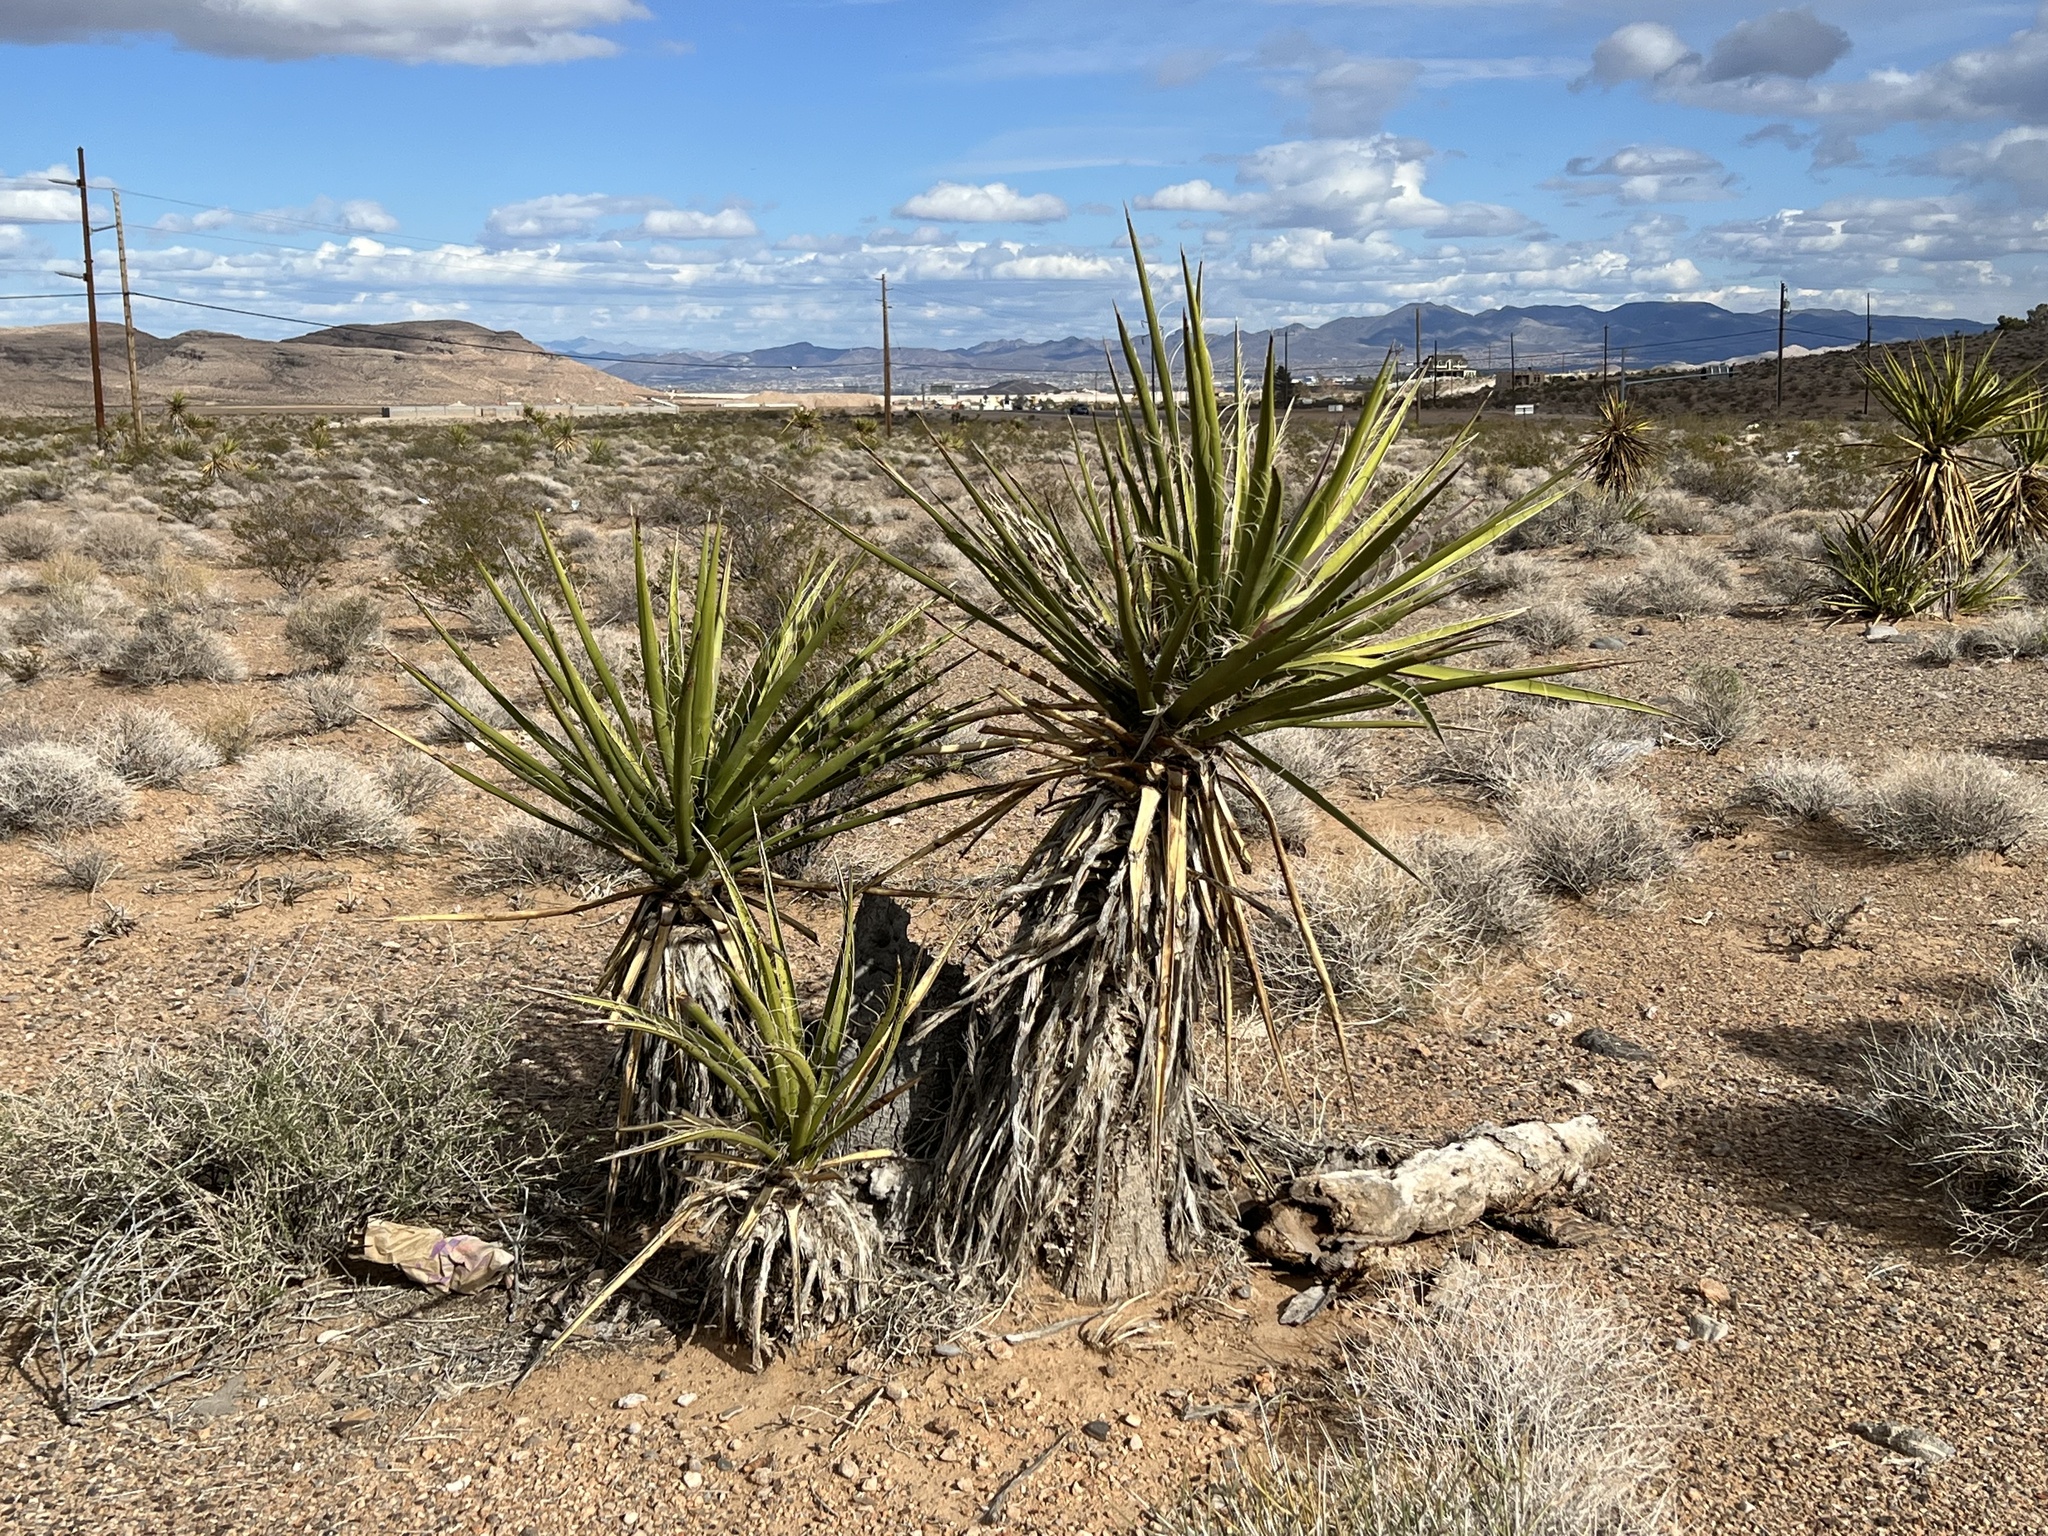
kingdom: Plantae
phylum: Tracheophyta
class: Liliopsida
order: Asparagales
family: Asparagaceae
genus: Yucca
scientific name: Yucca schidigera
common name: Mojave yucca
